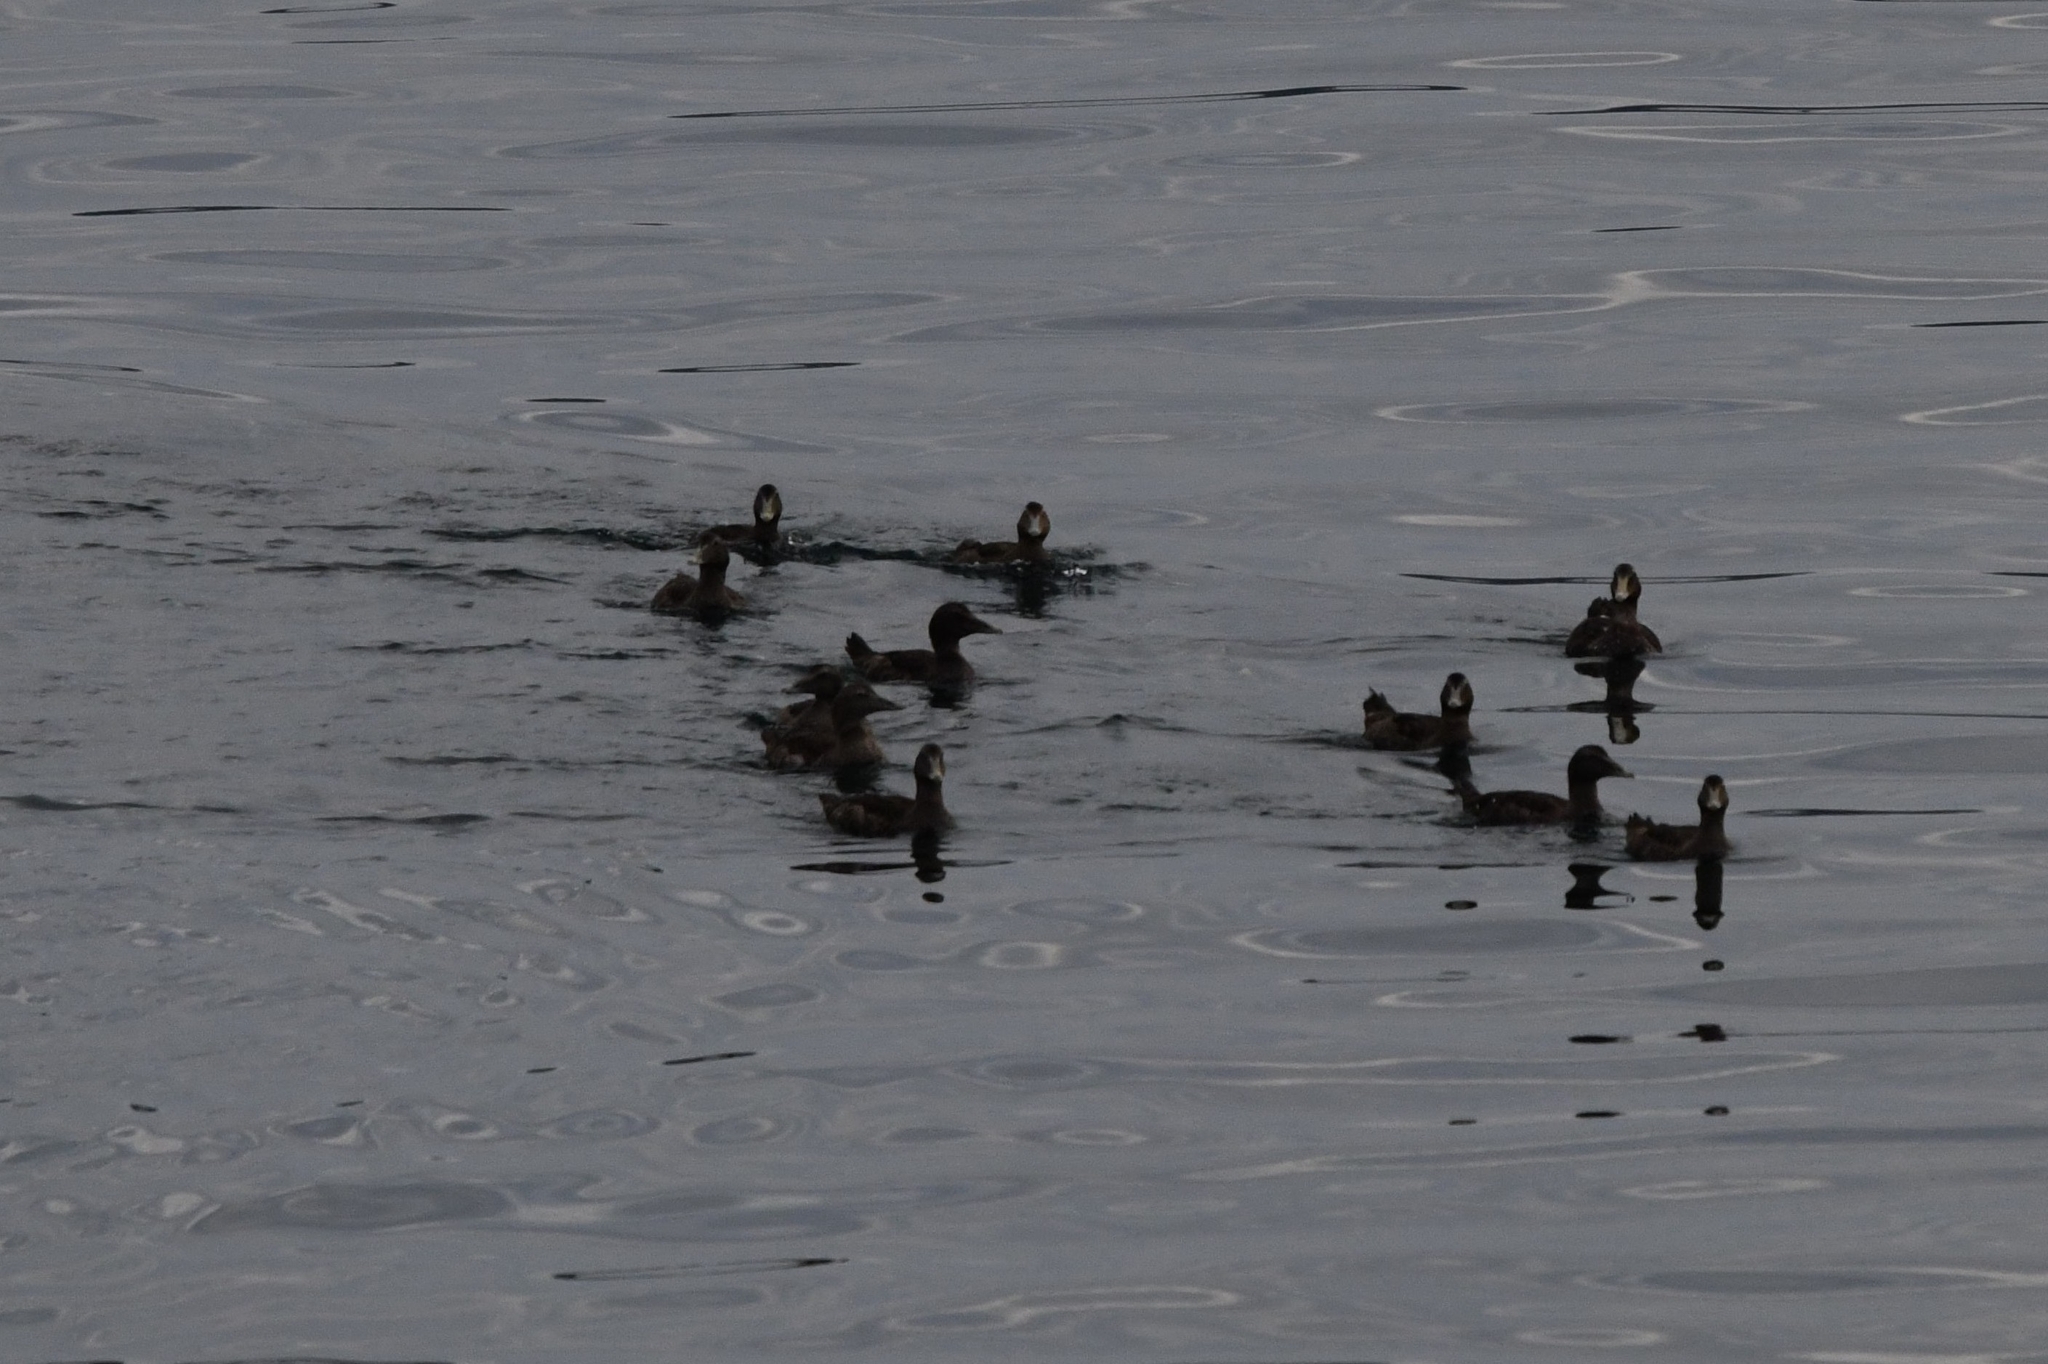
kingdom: Animalia
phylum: Chordata
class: Aves
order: Anseriformes
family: Anatidae
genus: Somateria
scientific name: Somateria mollissima
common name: Common eider
